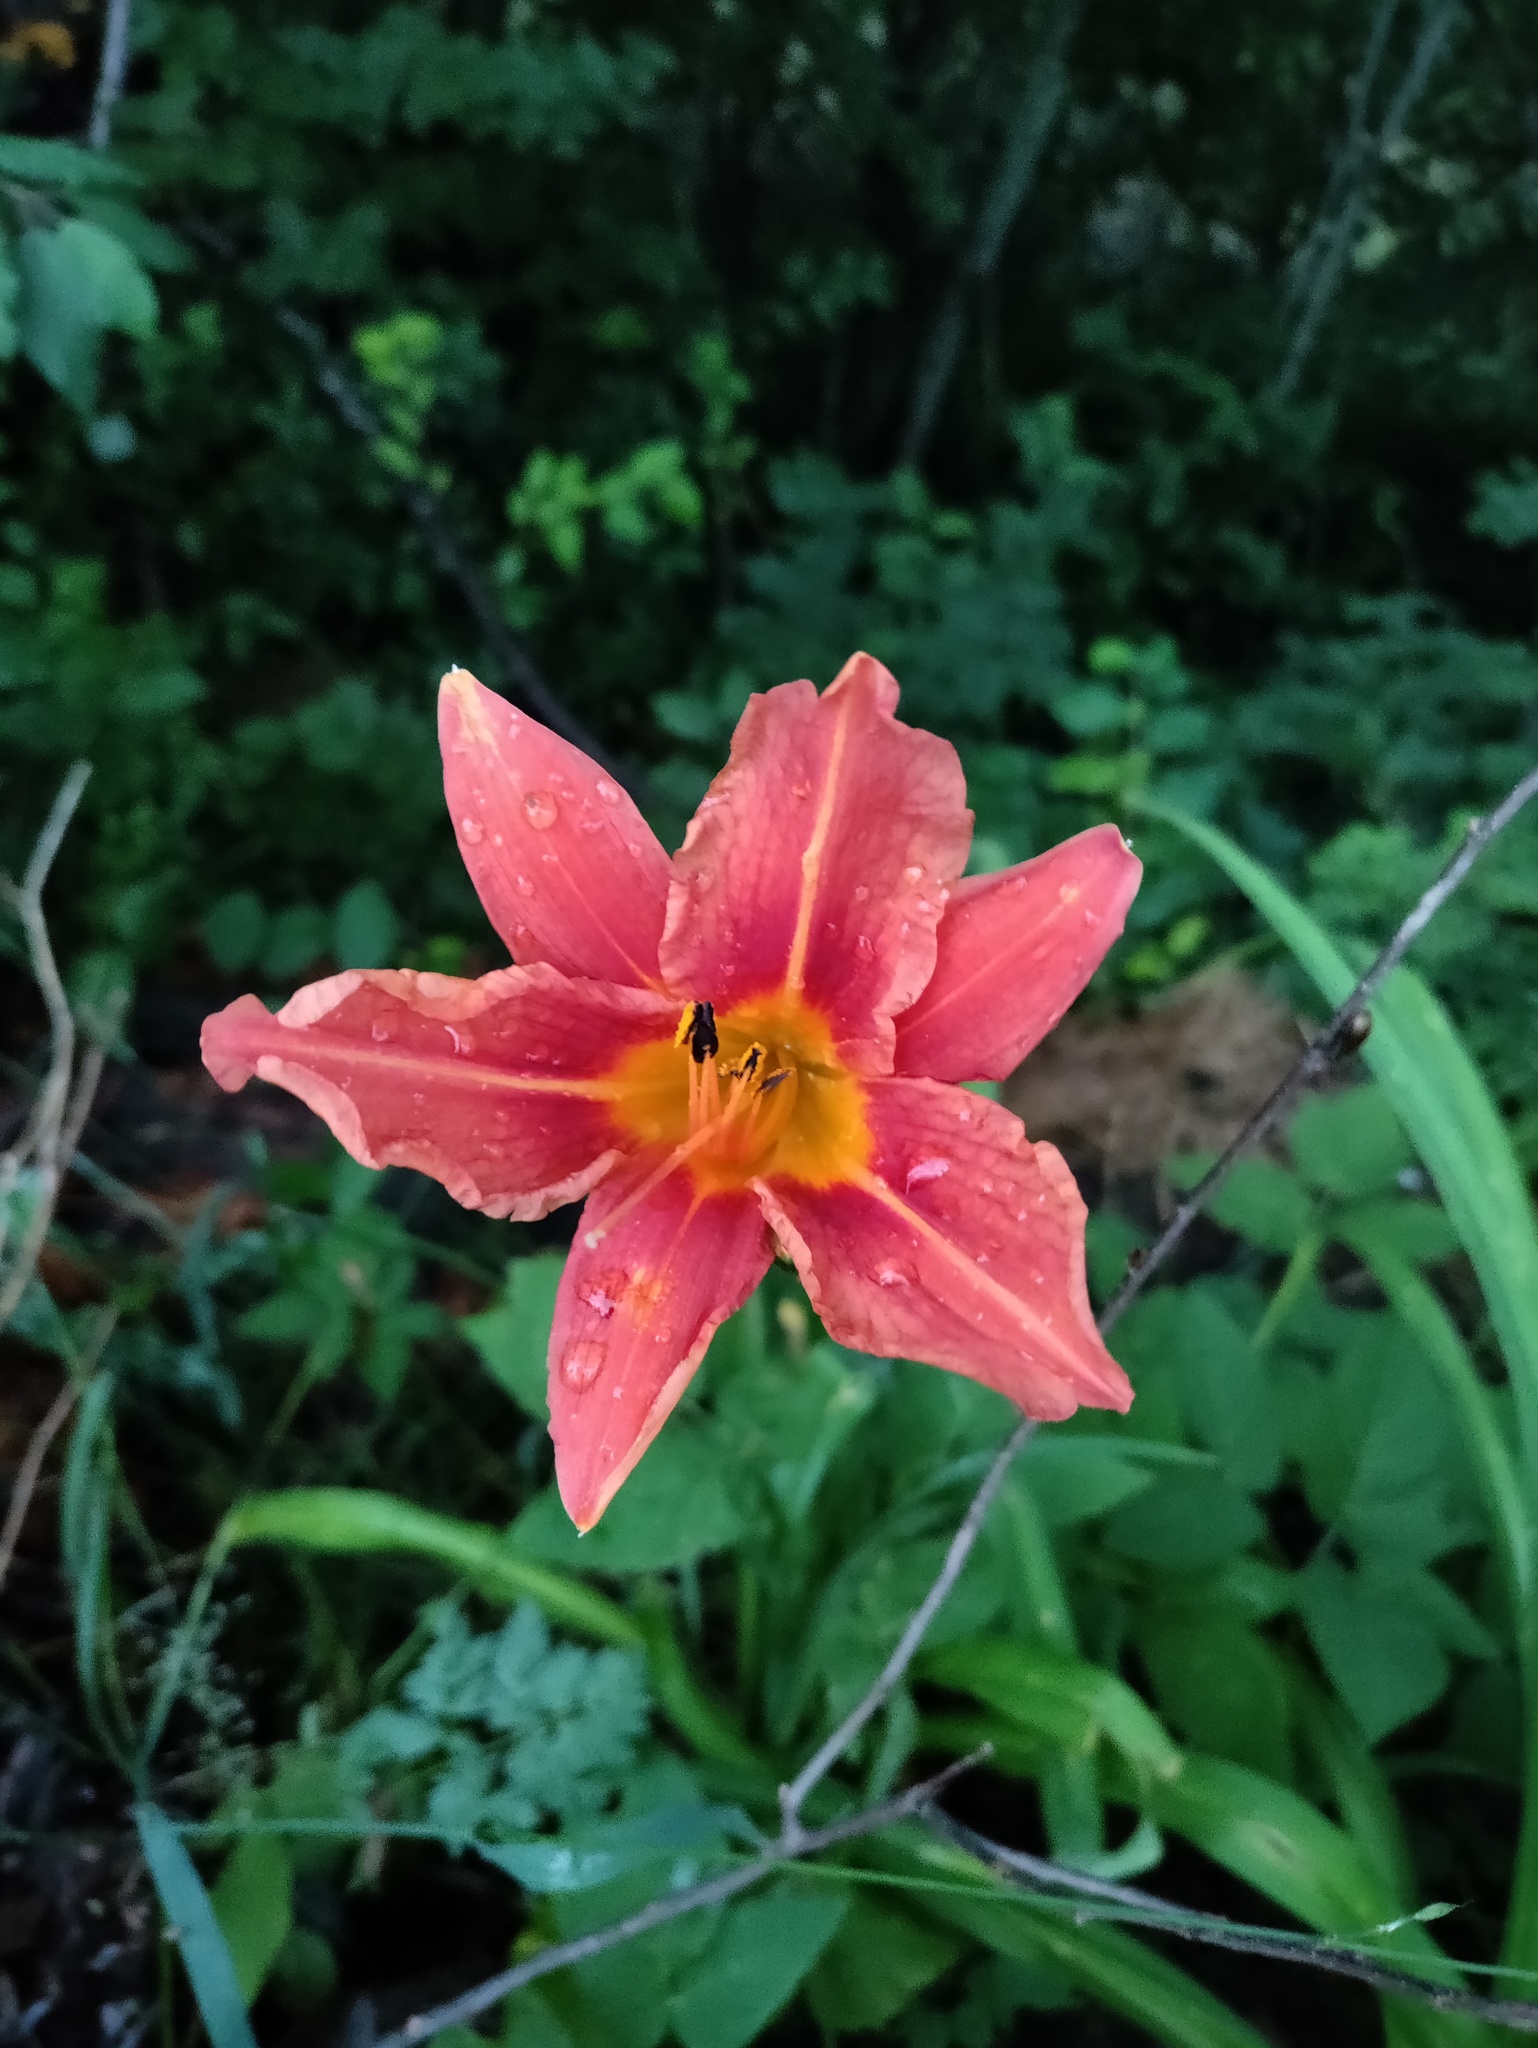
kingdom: Plantae
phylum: Tracheophyta
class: Liliopsida
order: Asparagales
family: Asphodelaceae
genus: Hemerocallis
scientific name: Hemerocallis fulva
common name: Orange day-lily
